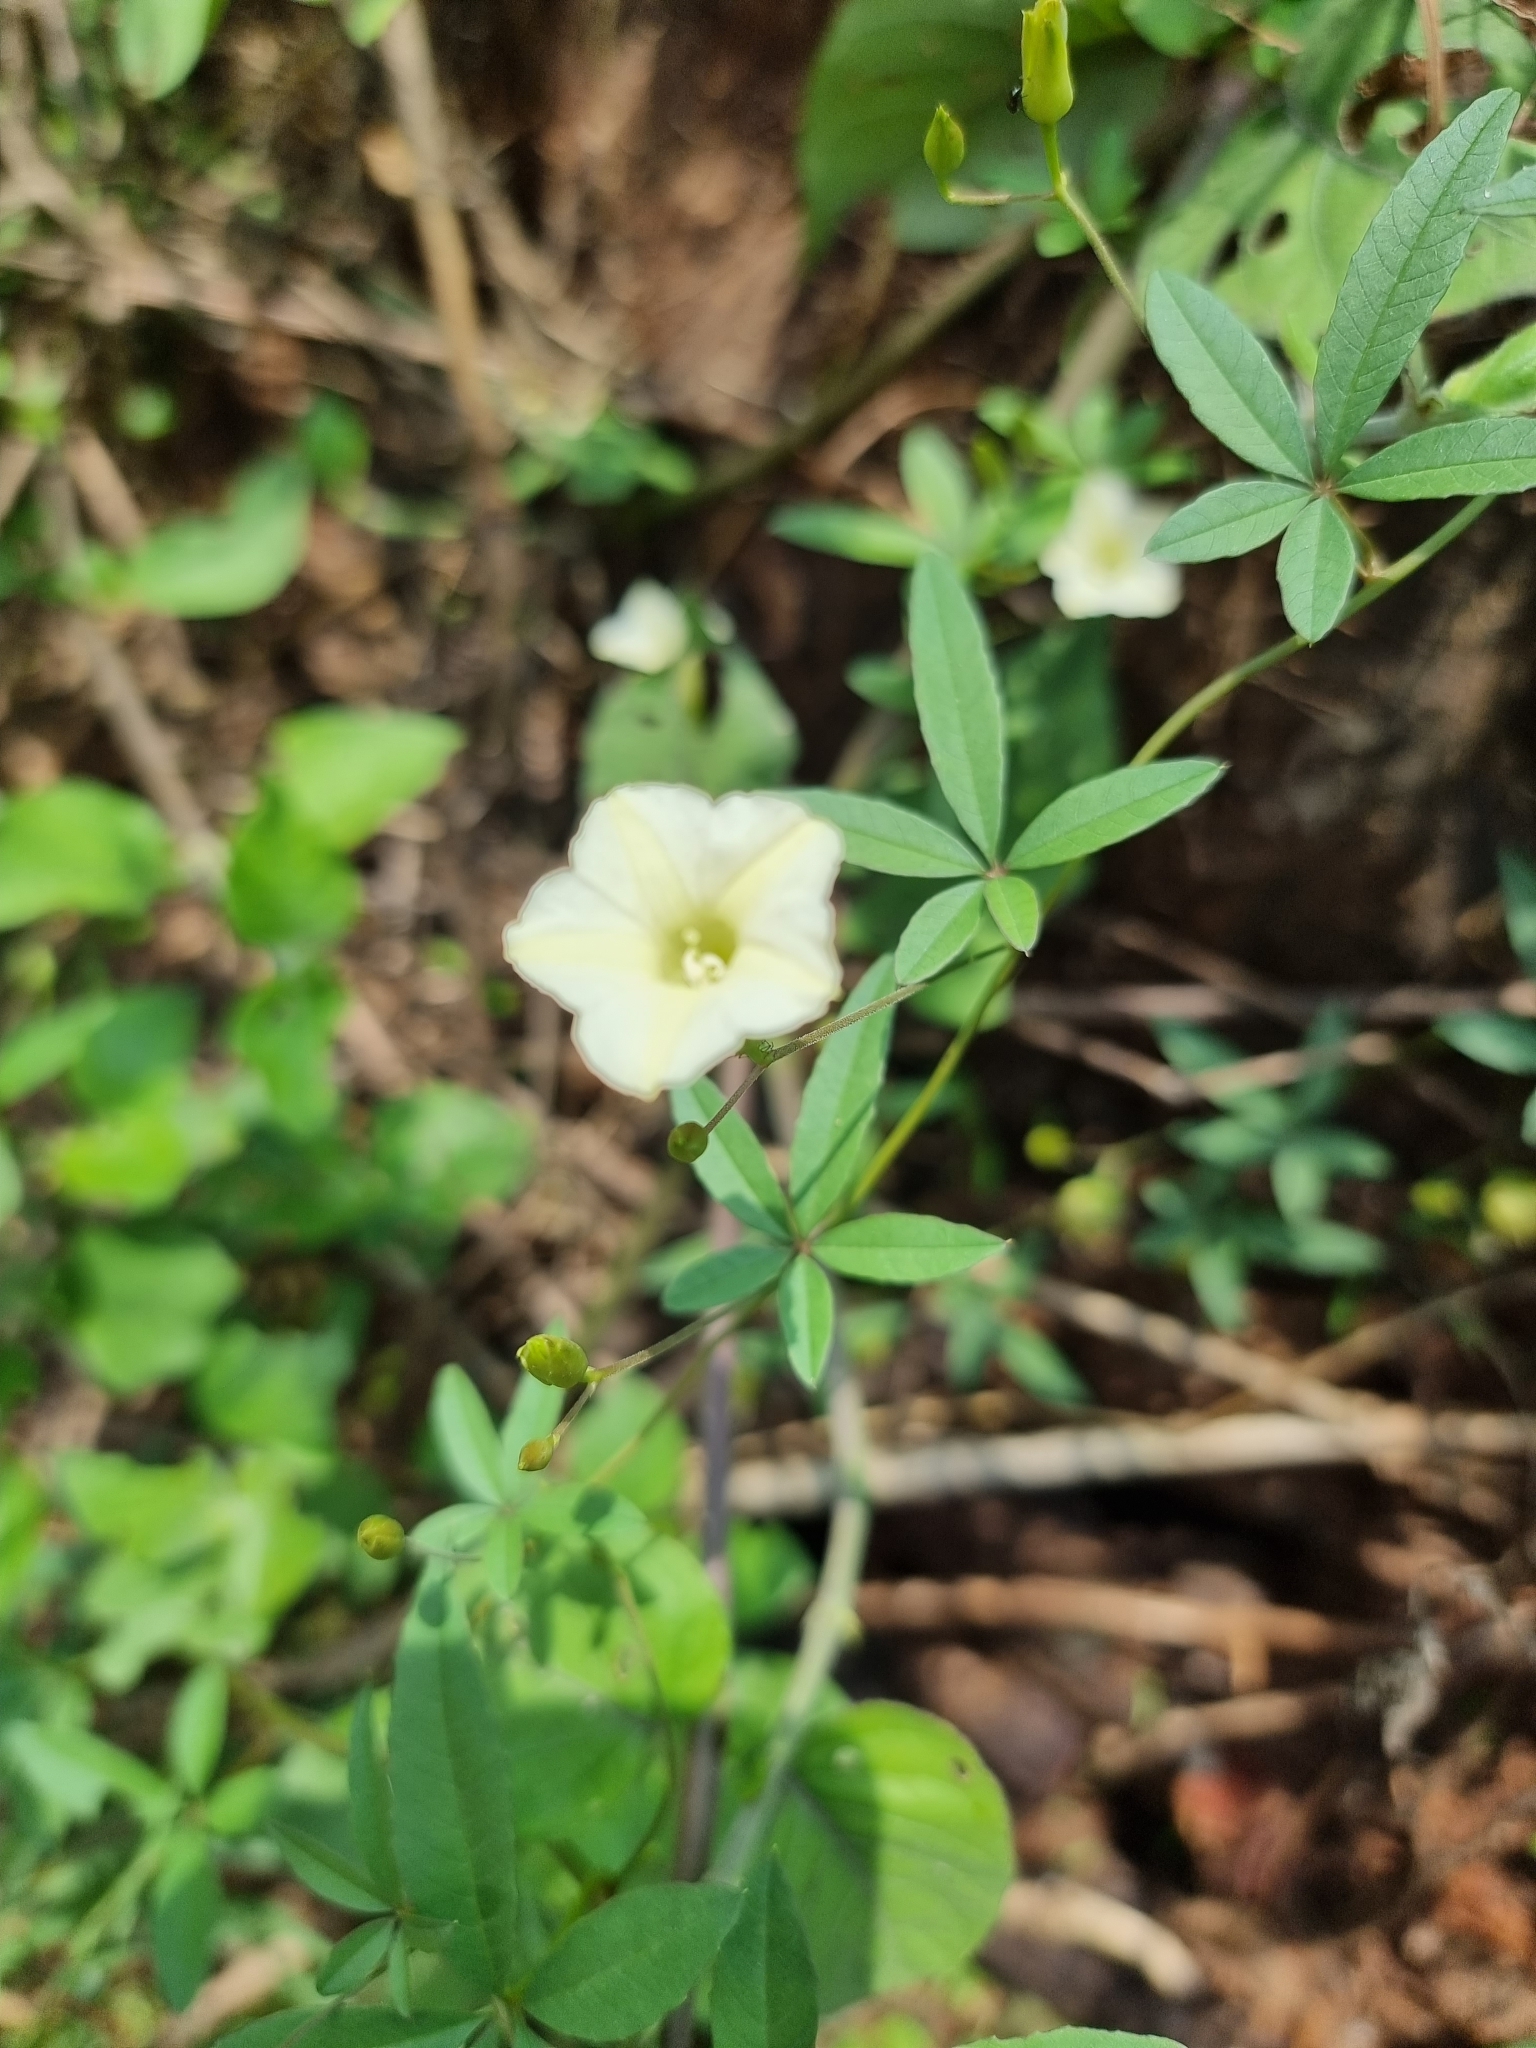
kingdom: Plantae
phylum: Tracheophyta
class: Magnoliopsida
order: Solanales
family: Convolvulaceae
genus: Distimake
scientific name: Distimake quinquefolius
